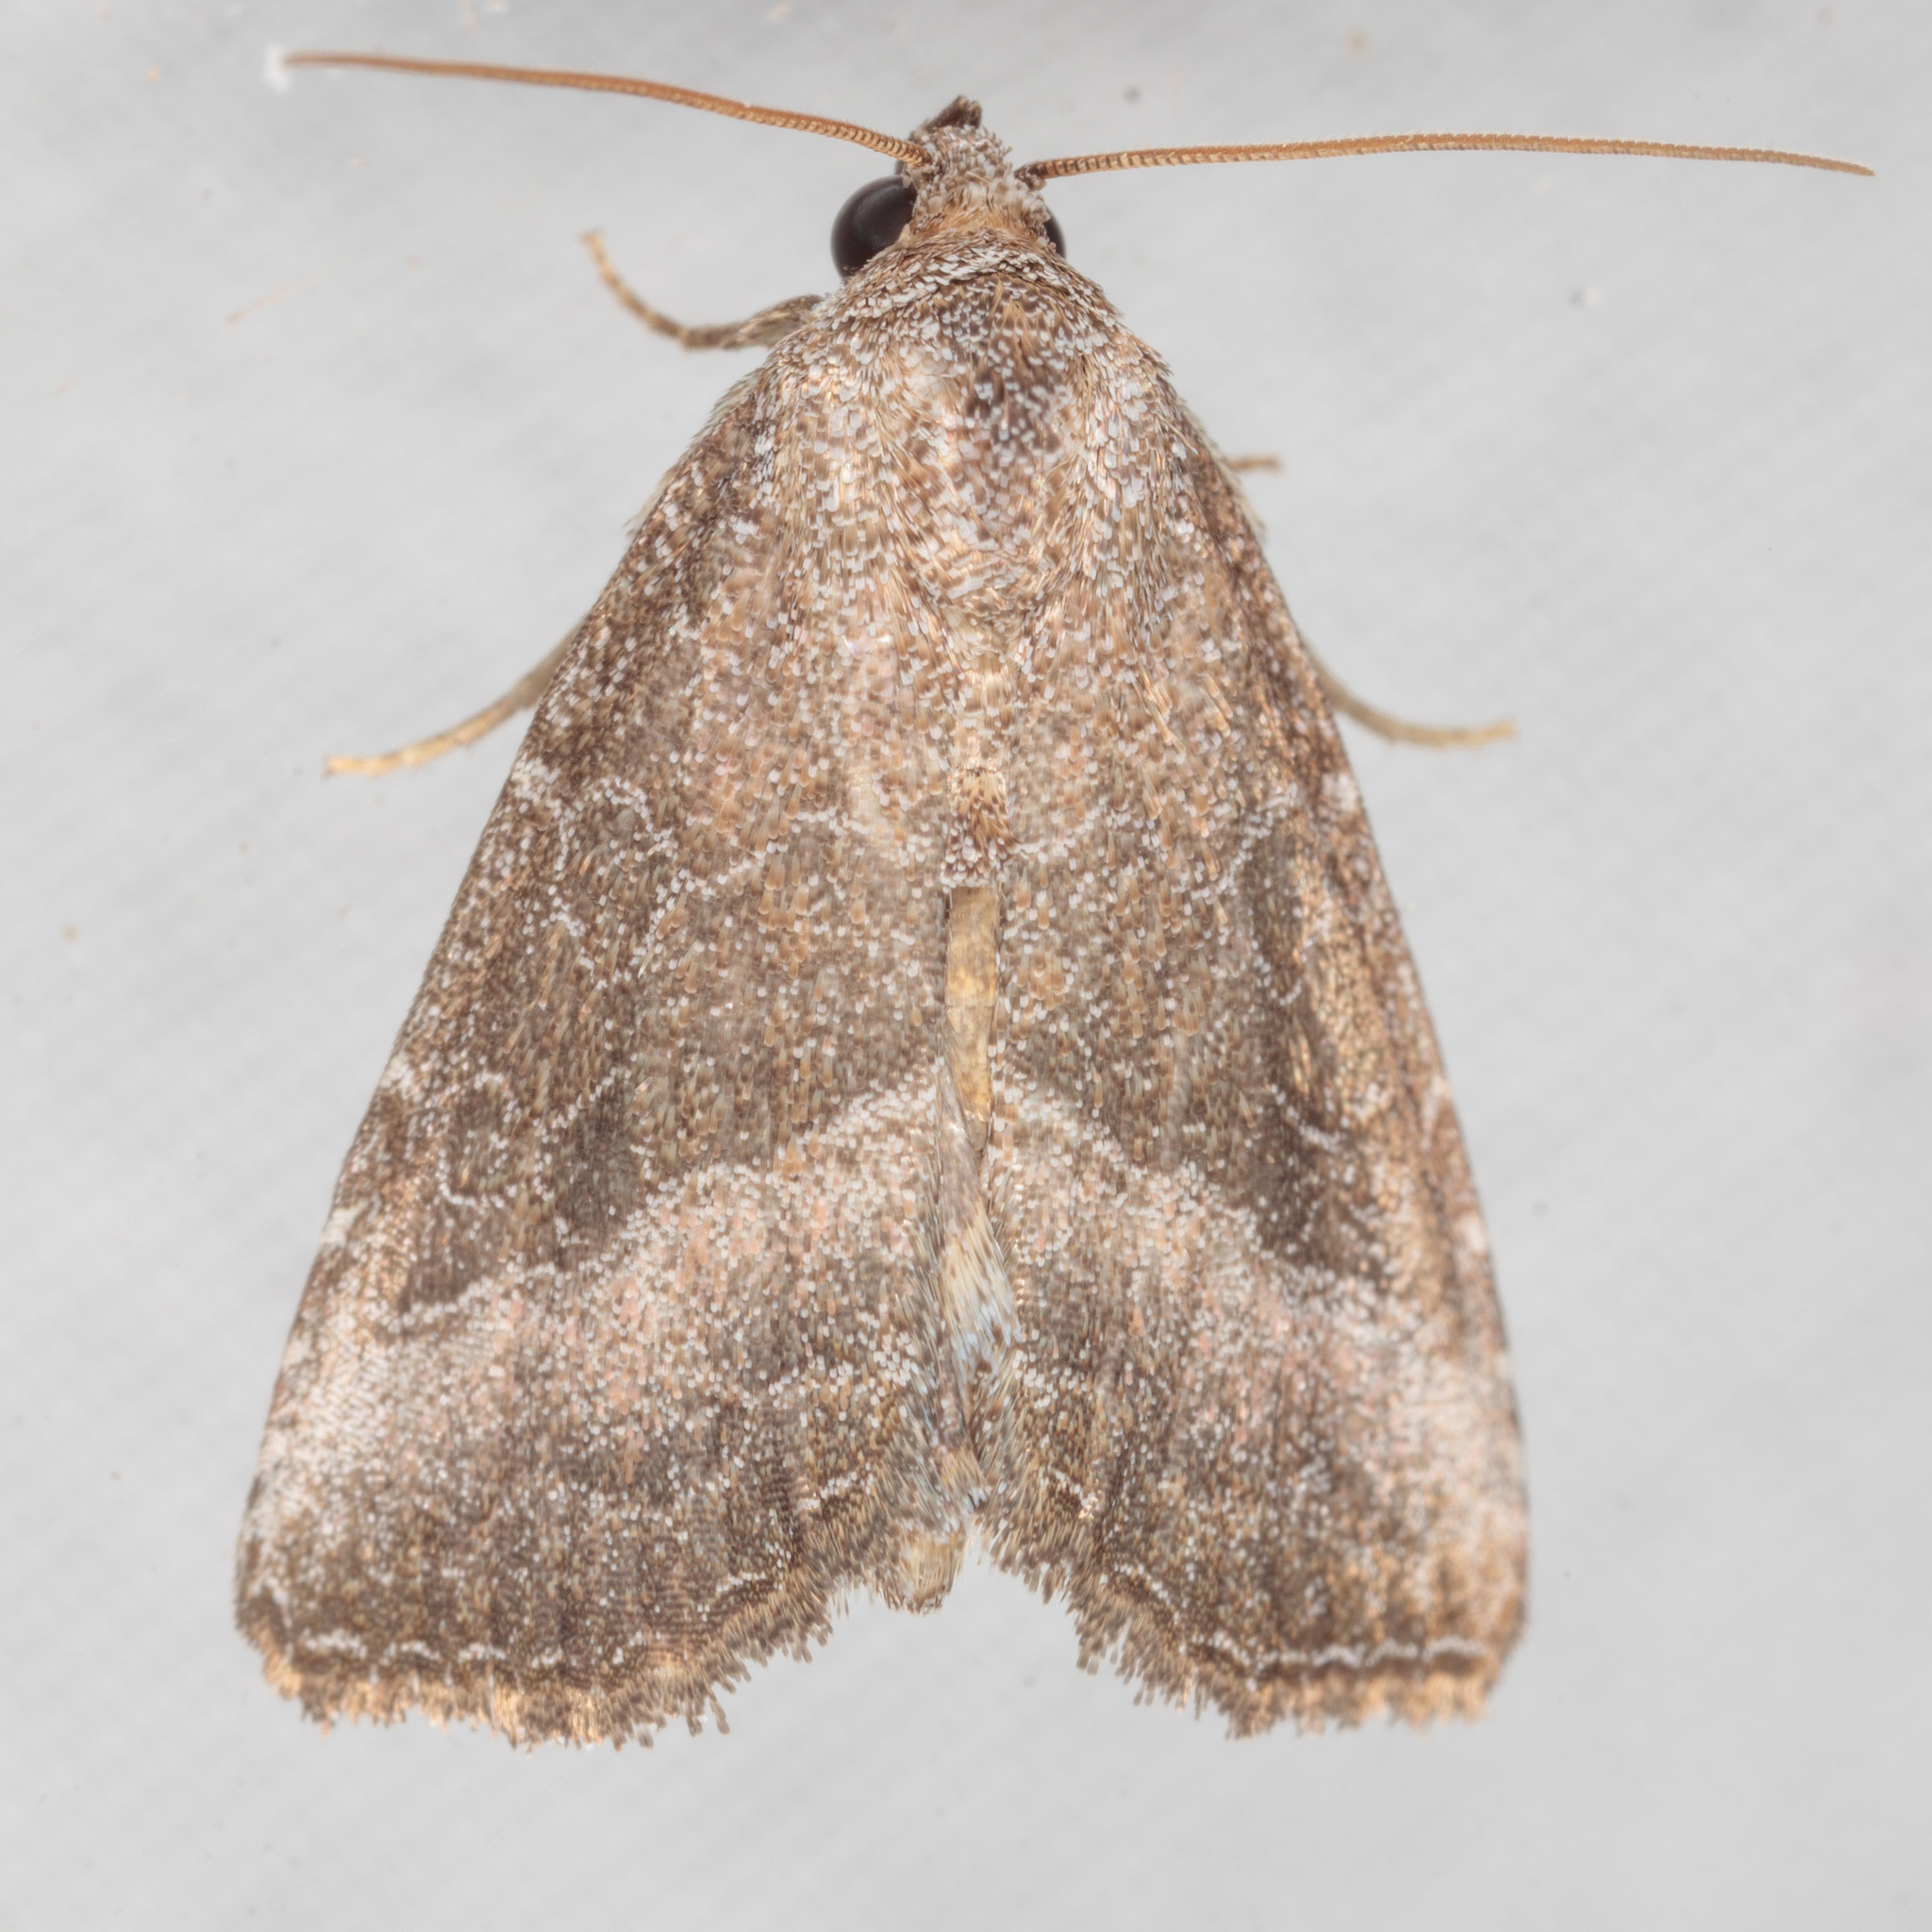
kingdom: Animalia
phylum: Arthropoda
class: Insecta
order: Lepidoptera
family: Noctuidae
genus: Ogdoconta
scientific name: Ogdoconta cinereola
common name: Common pinkband
